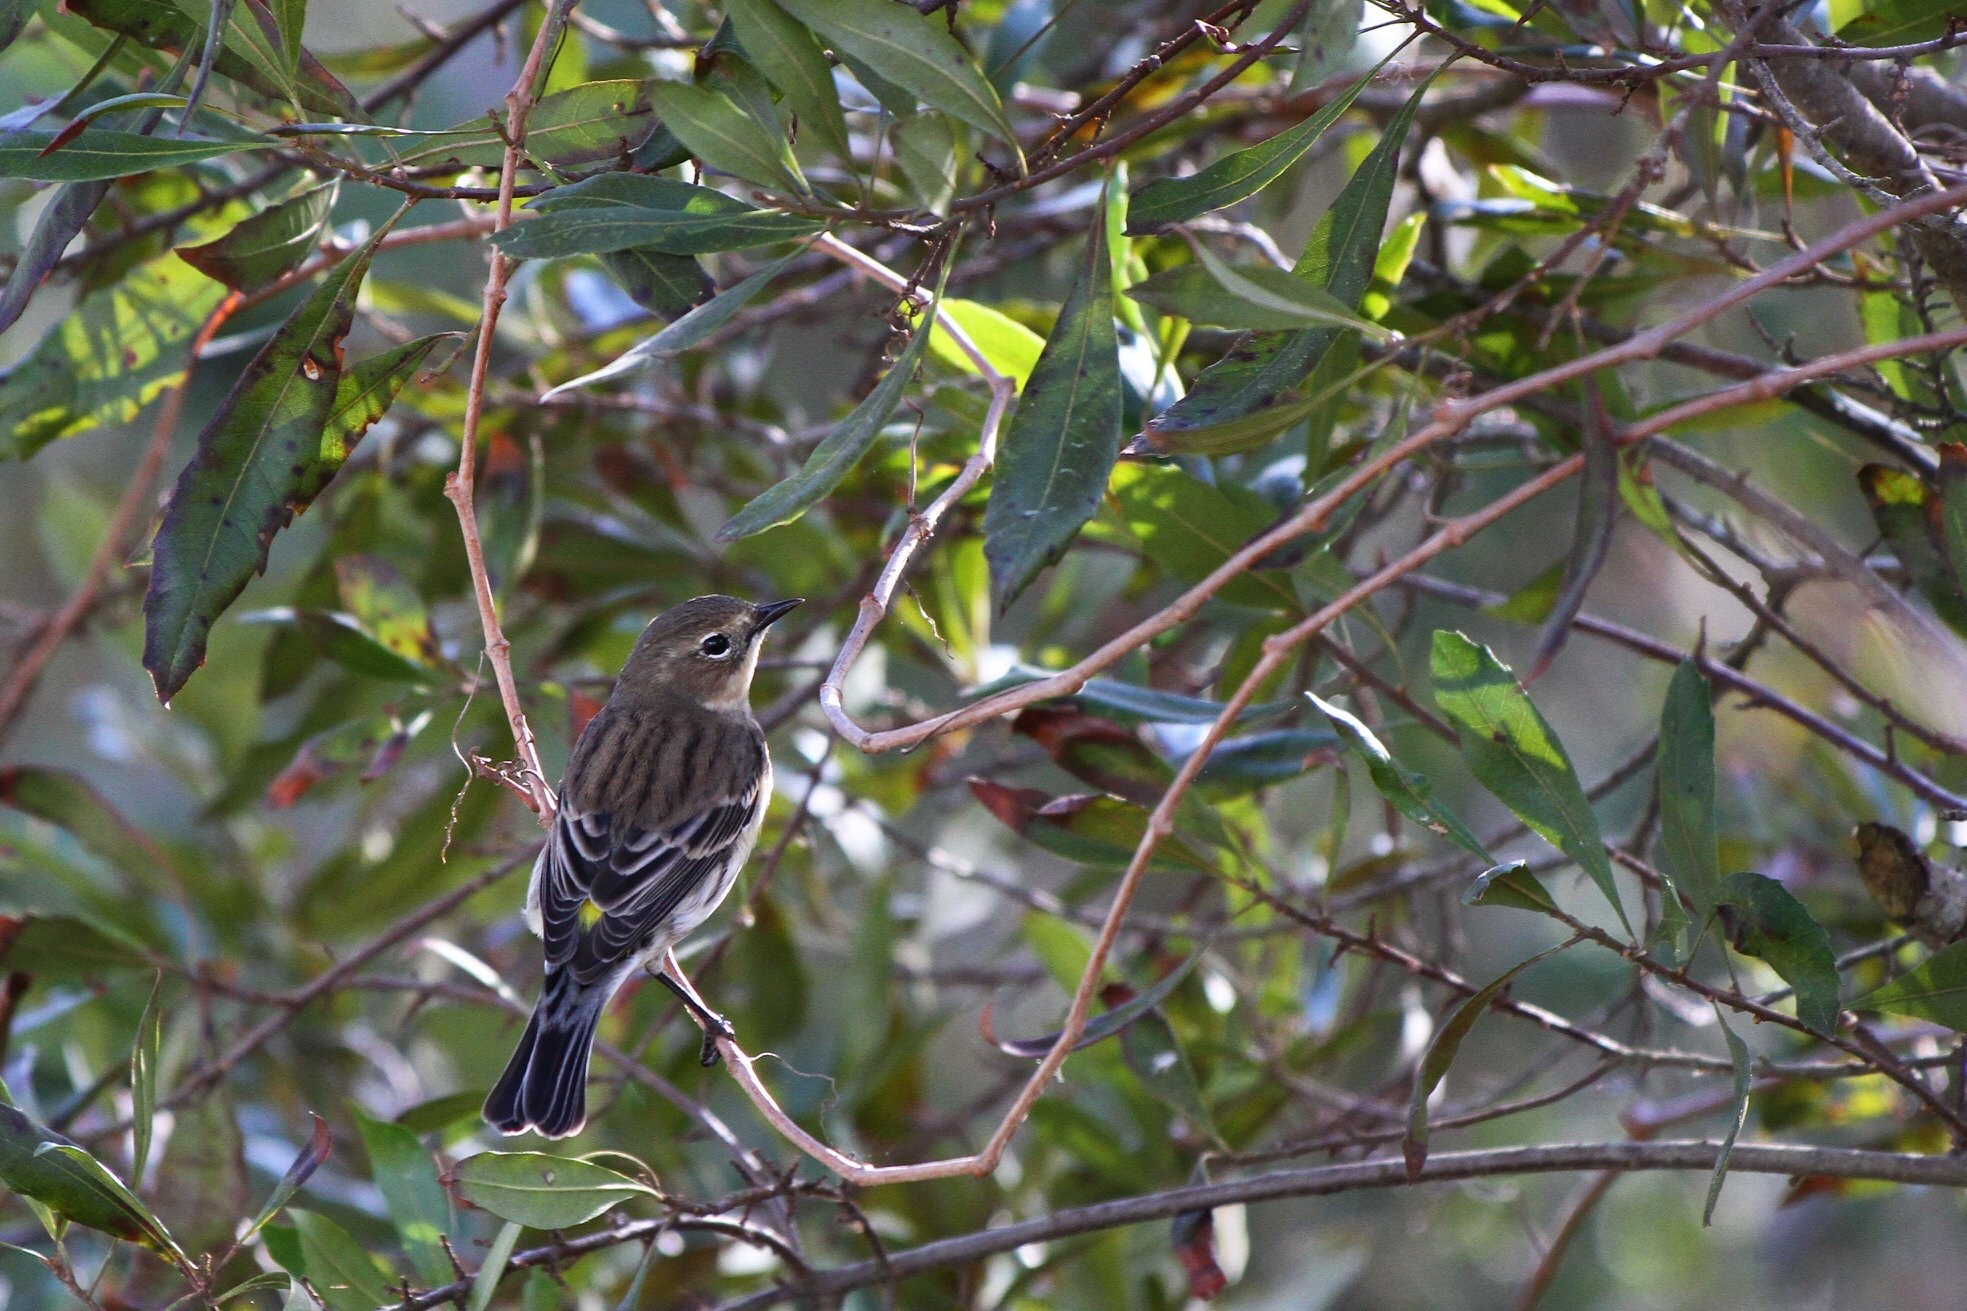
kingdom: Animalia
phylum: Chordata
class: Aves
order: Passeriformes
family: Parulidae
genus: Setophaga
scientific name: Setophaga coronata
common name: Myrtle warbler
